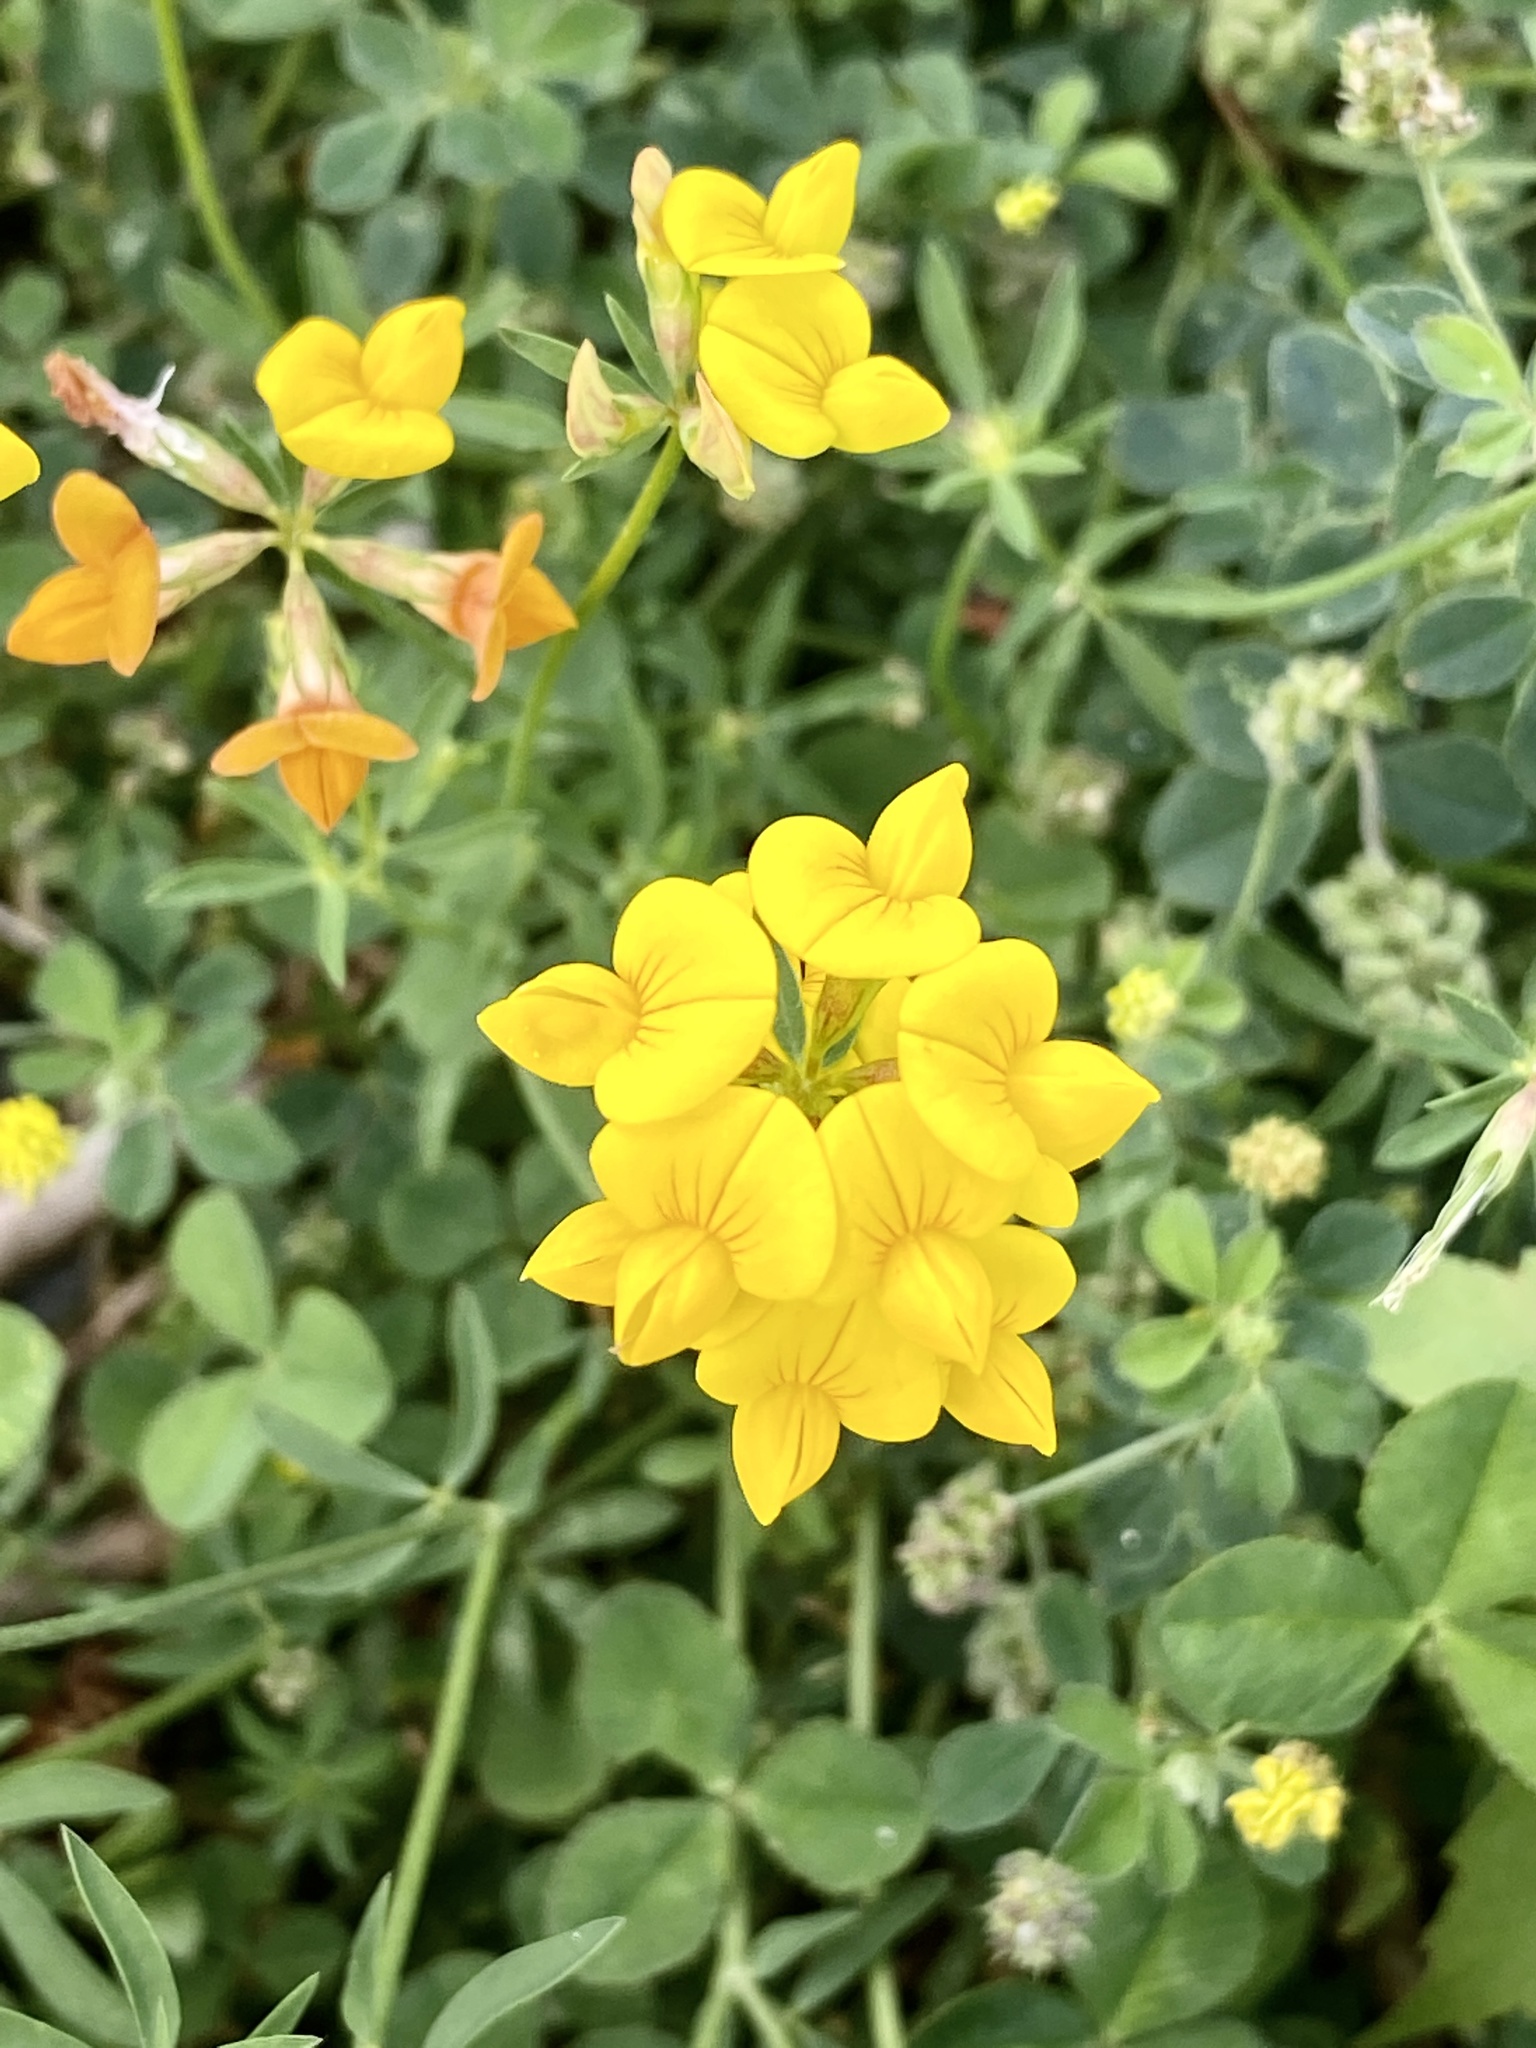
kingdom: Plantae
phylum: Tracheophyta
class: Magnoliopsida
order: Fabales
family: Fabaceae
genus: Lotus
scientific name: Lotus corniculatus
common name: Common bird's-foot-trefoil
